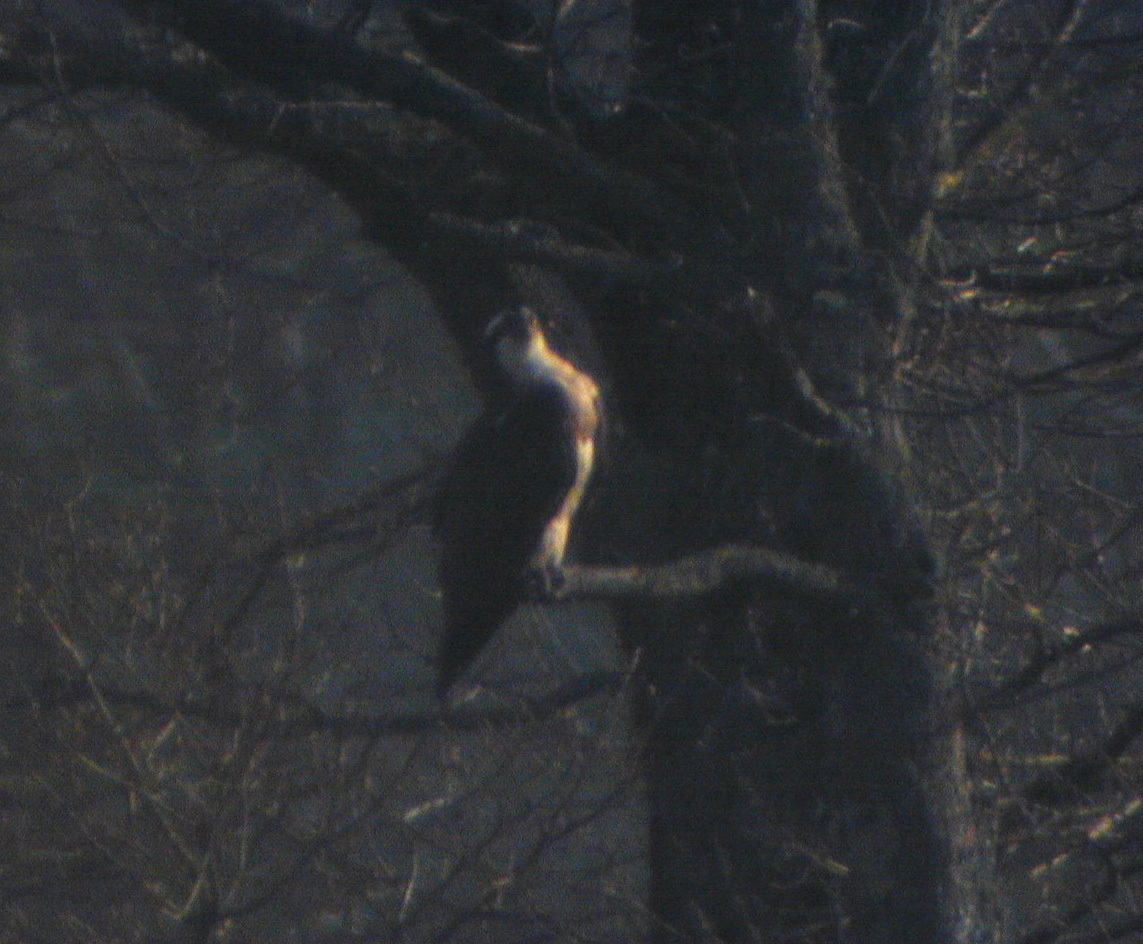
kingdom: Animalia
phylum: Chordata
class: Aves
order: Accipitriformes
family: Pandionidae
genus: Pandion
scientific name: Pandion haliaetus
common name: Osprey
